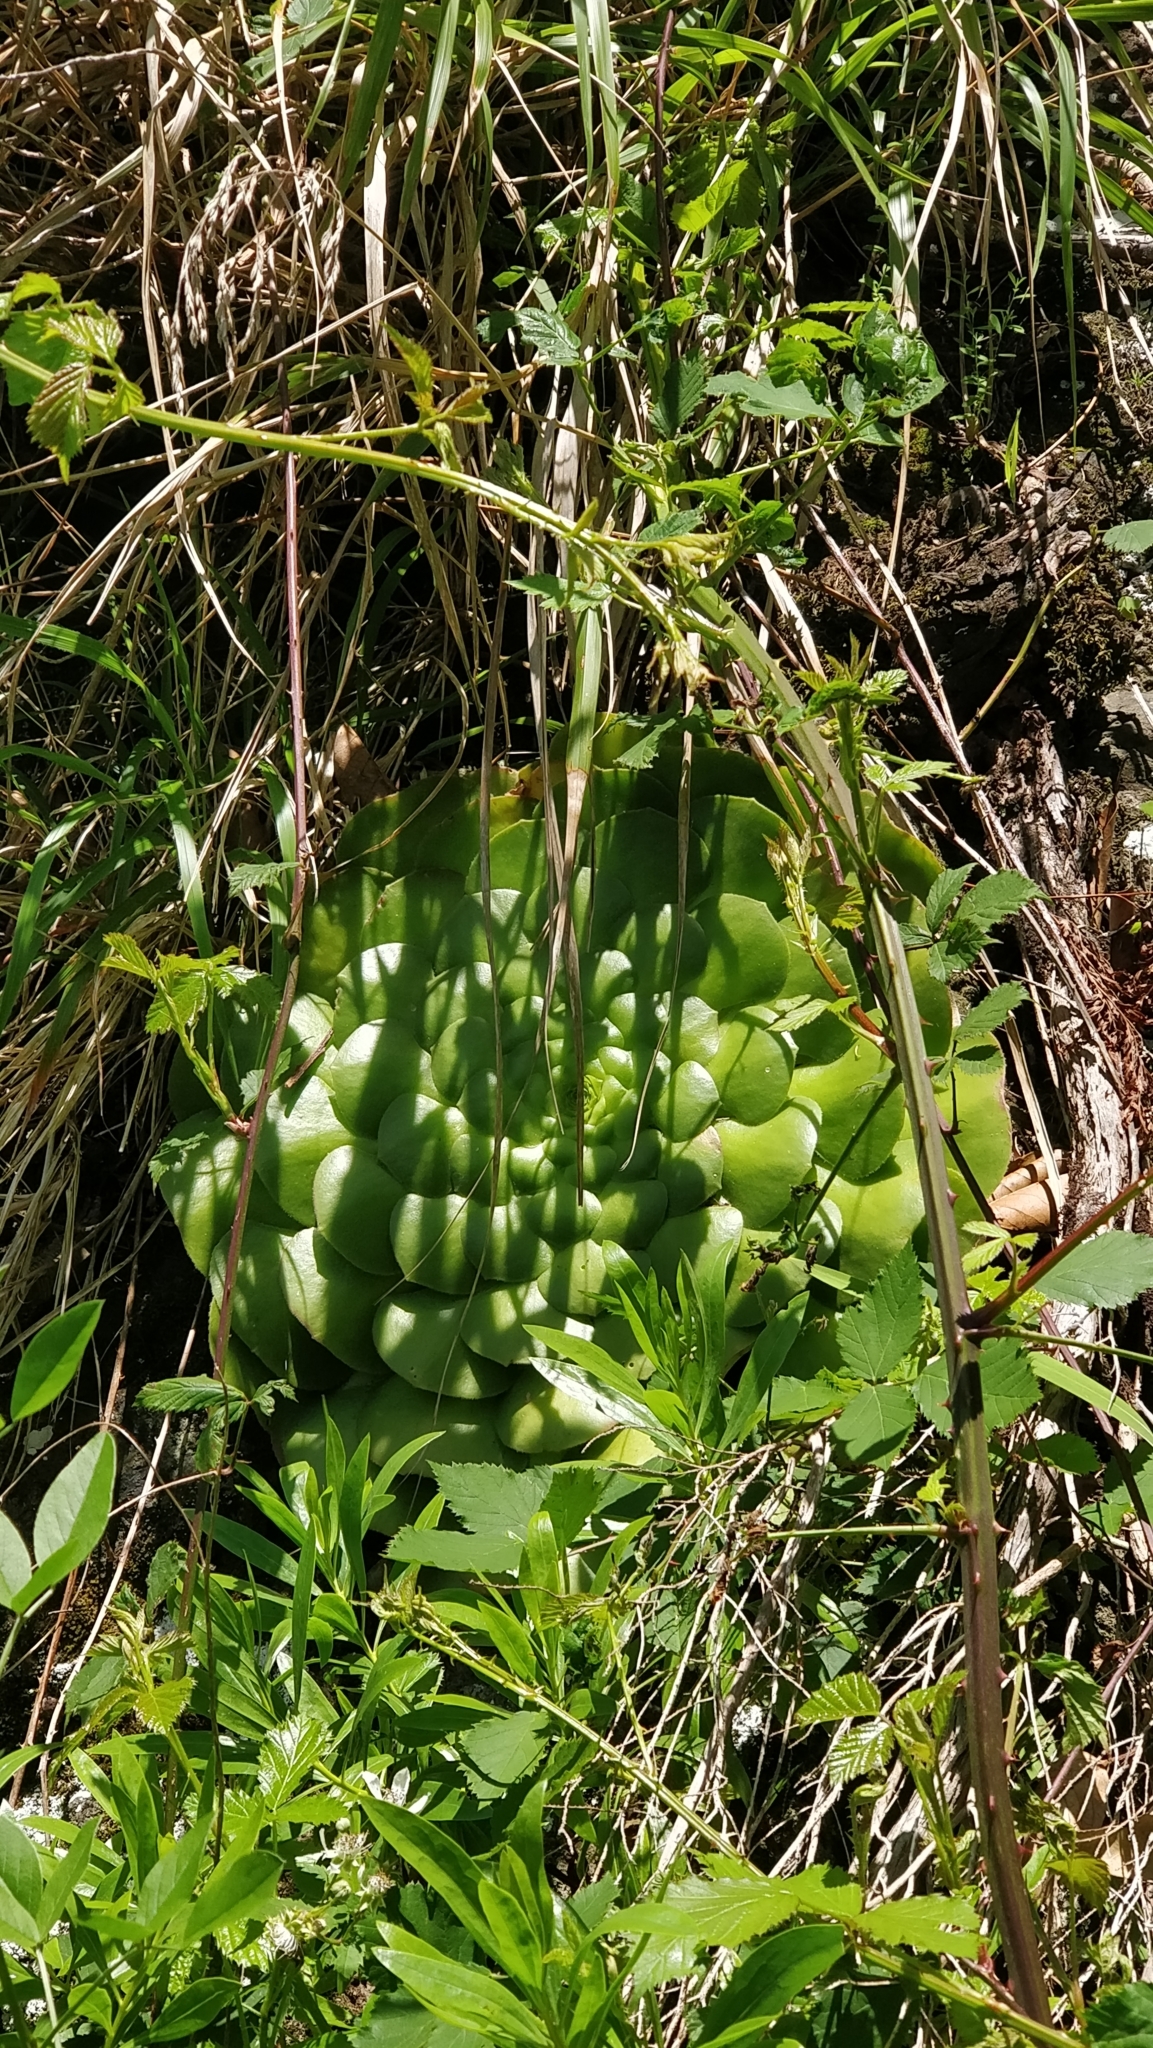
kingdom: Plantae
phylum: Tracheophyta
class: Magnoliopsida
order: Saxifragales
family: Crassulaceae
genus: Aeonium
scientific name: Aeonium glandulosum
